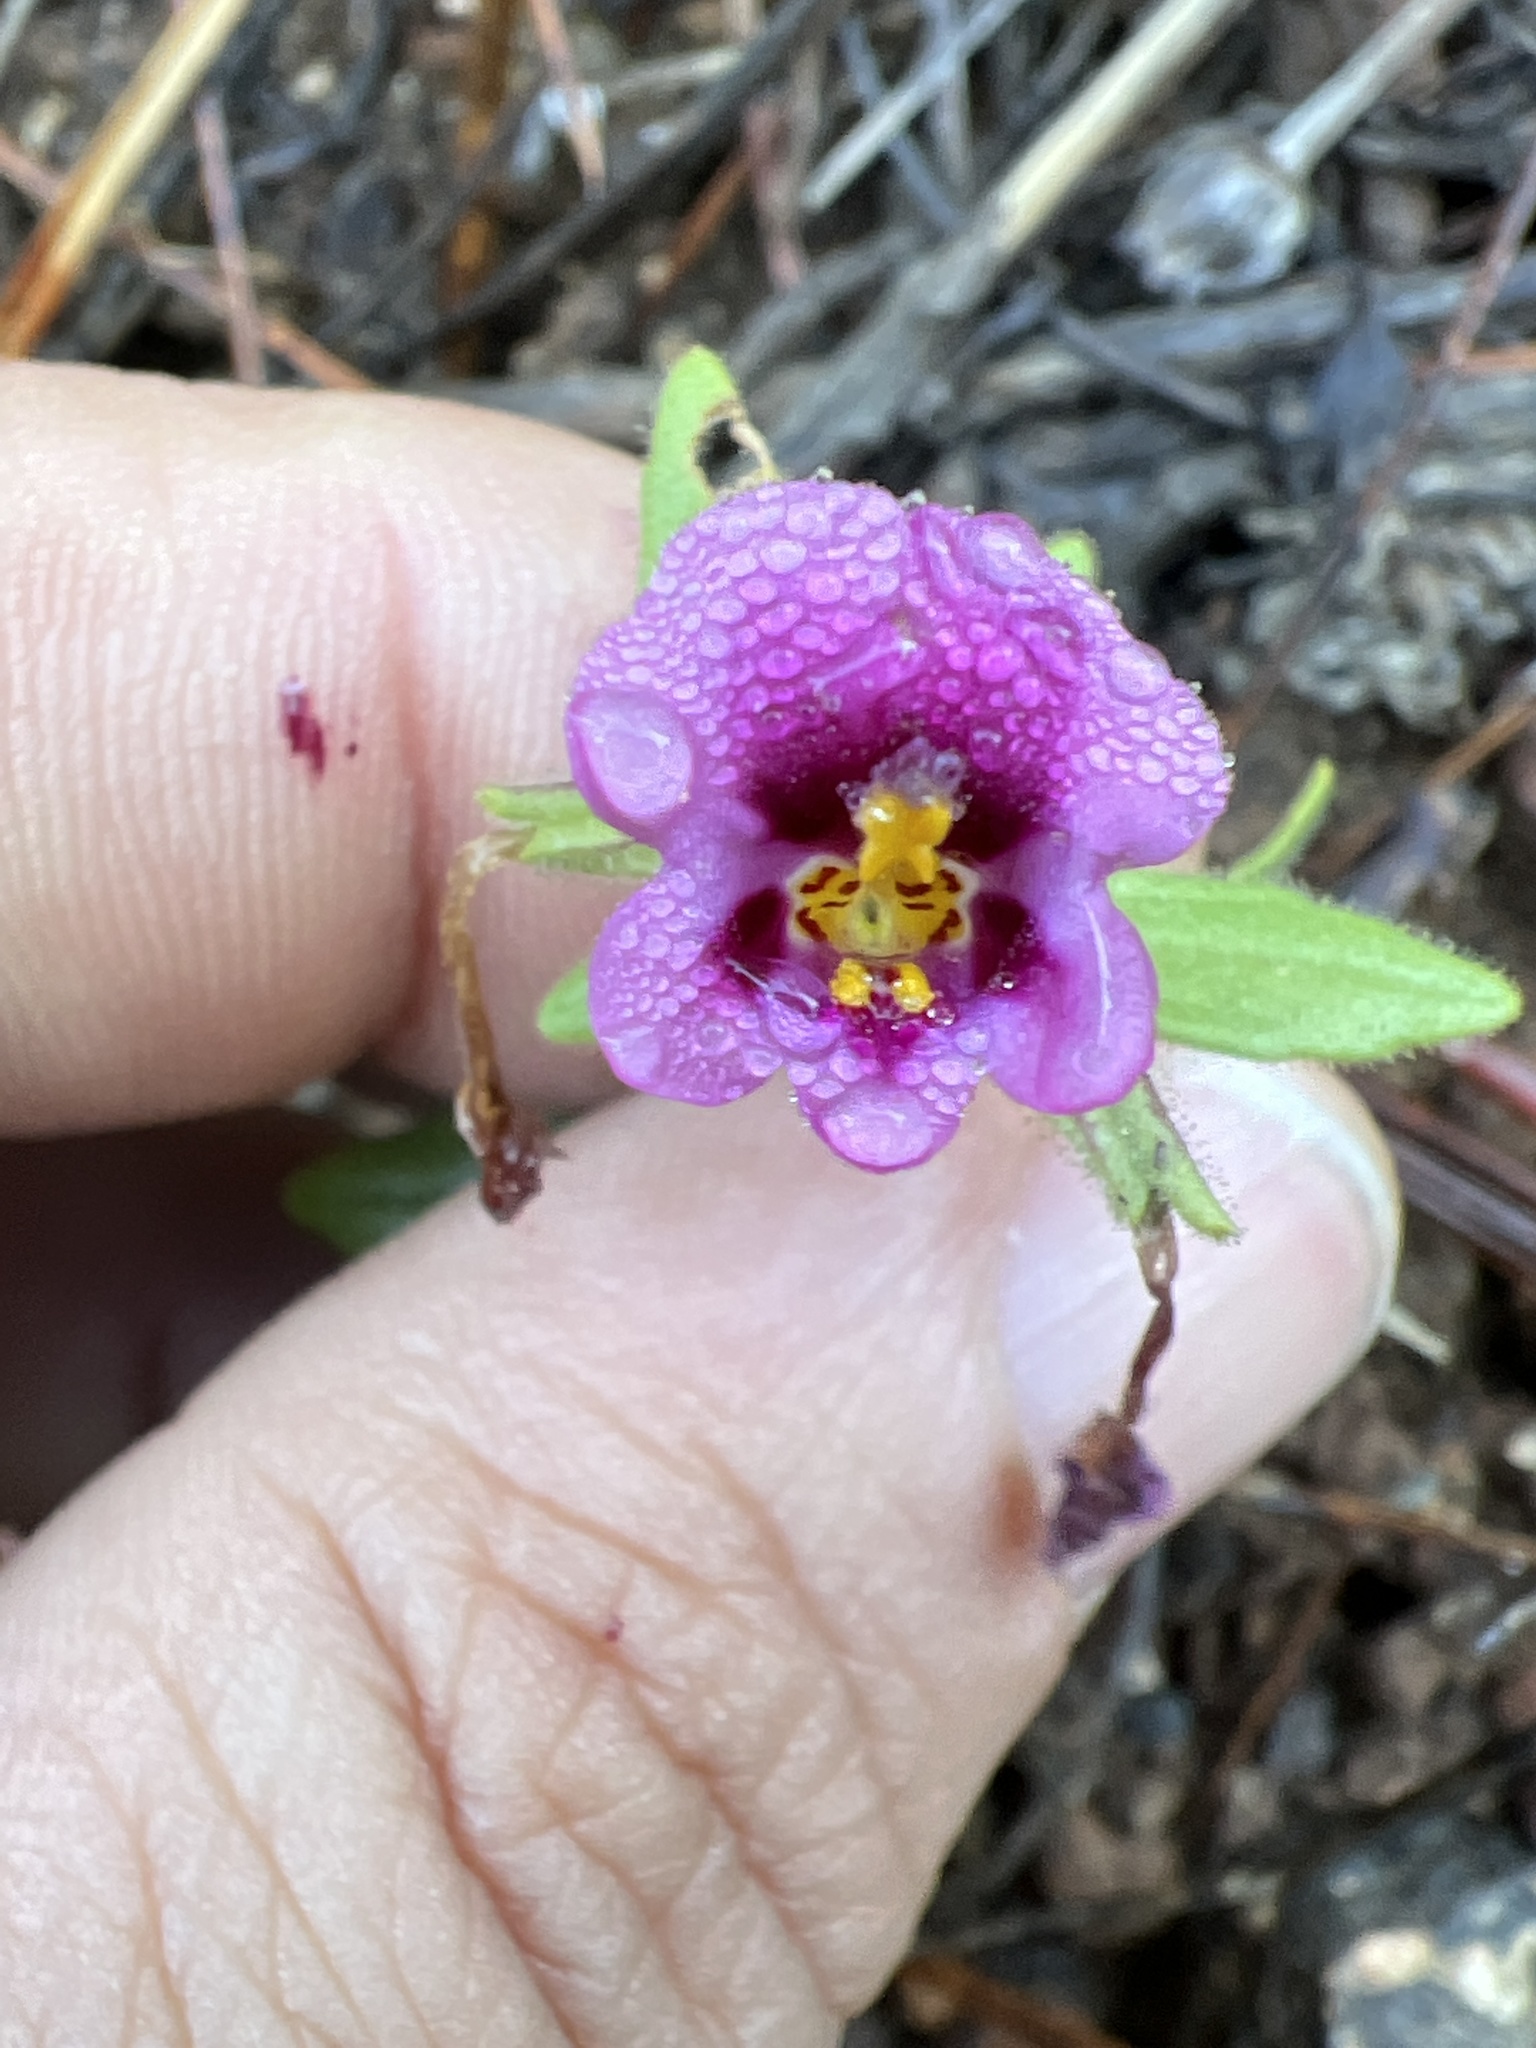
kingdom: Plantae
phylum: Tracheophyta
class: Magnoliopsida
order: Lamiales
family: Phrymaceae
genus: Diplacus
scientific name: Diplacus kelloggii
